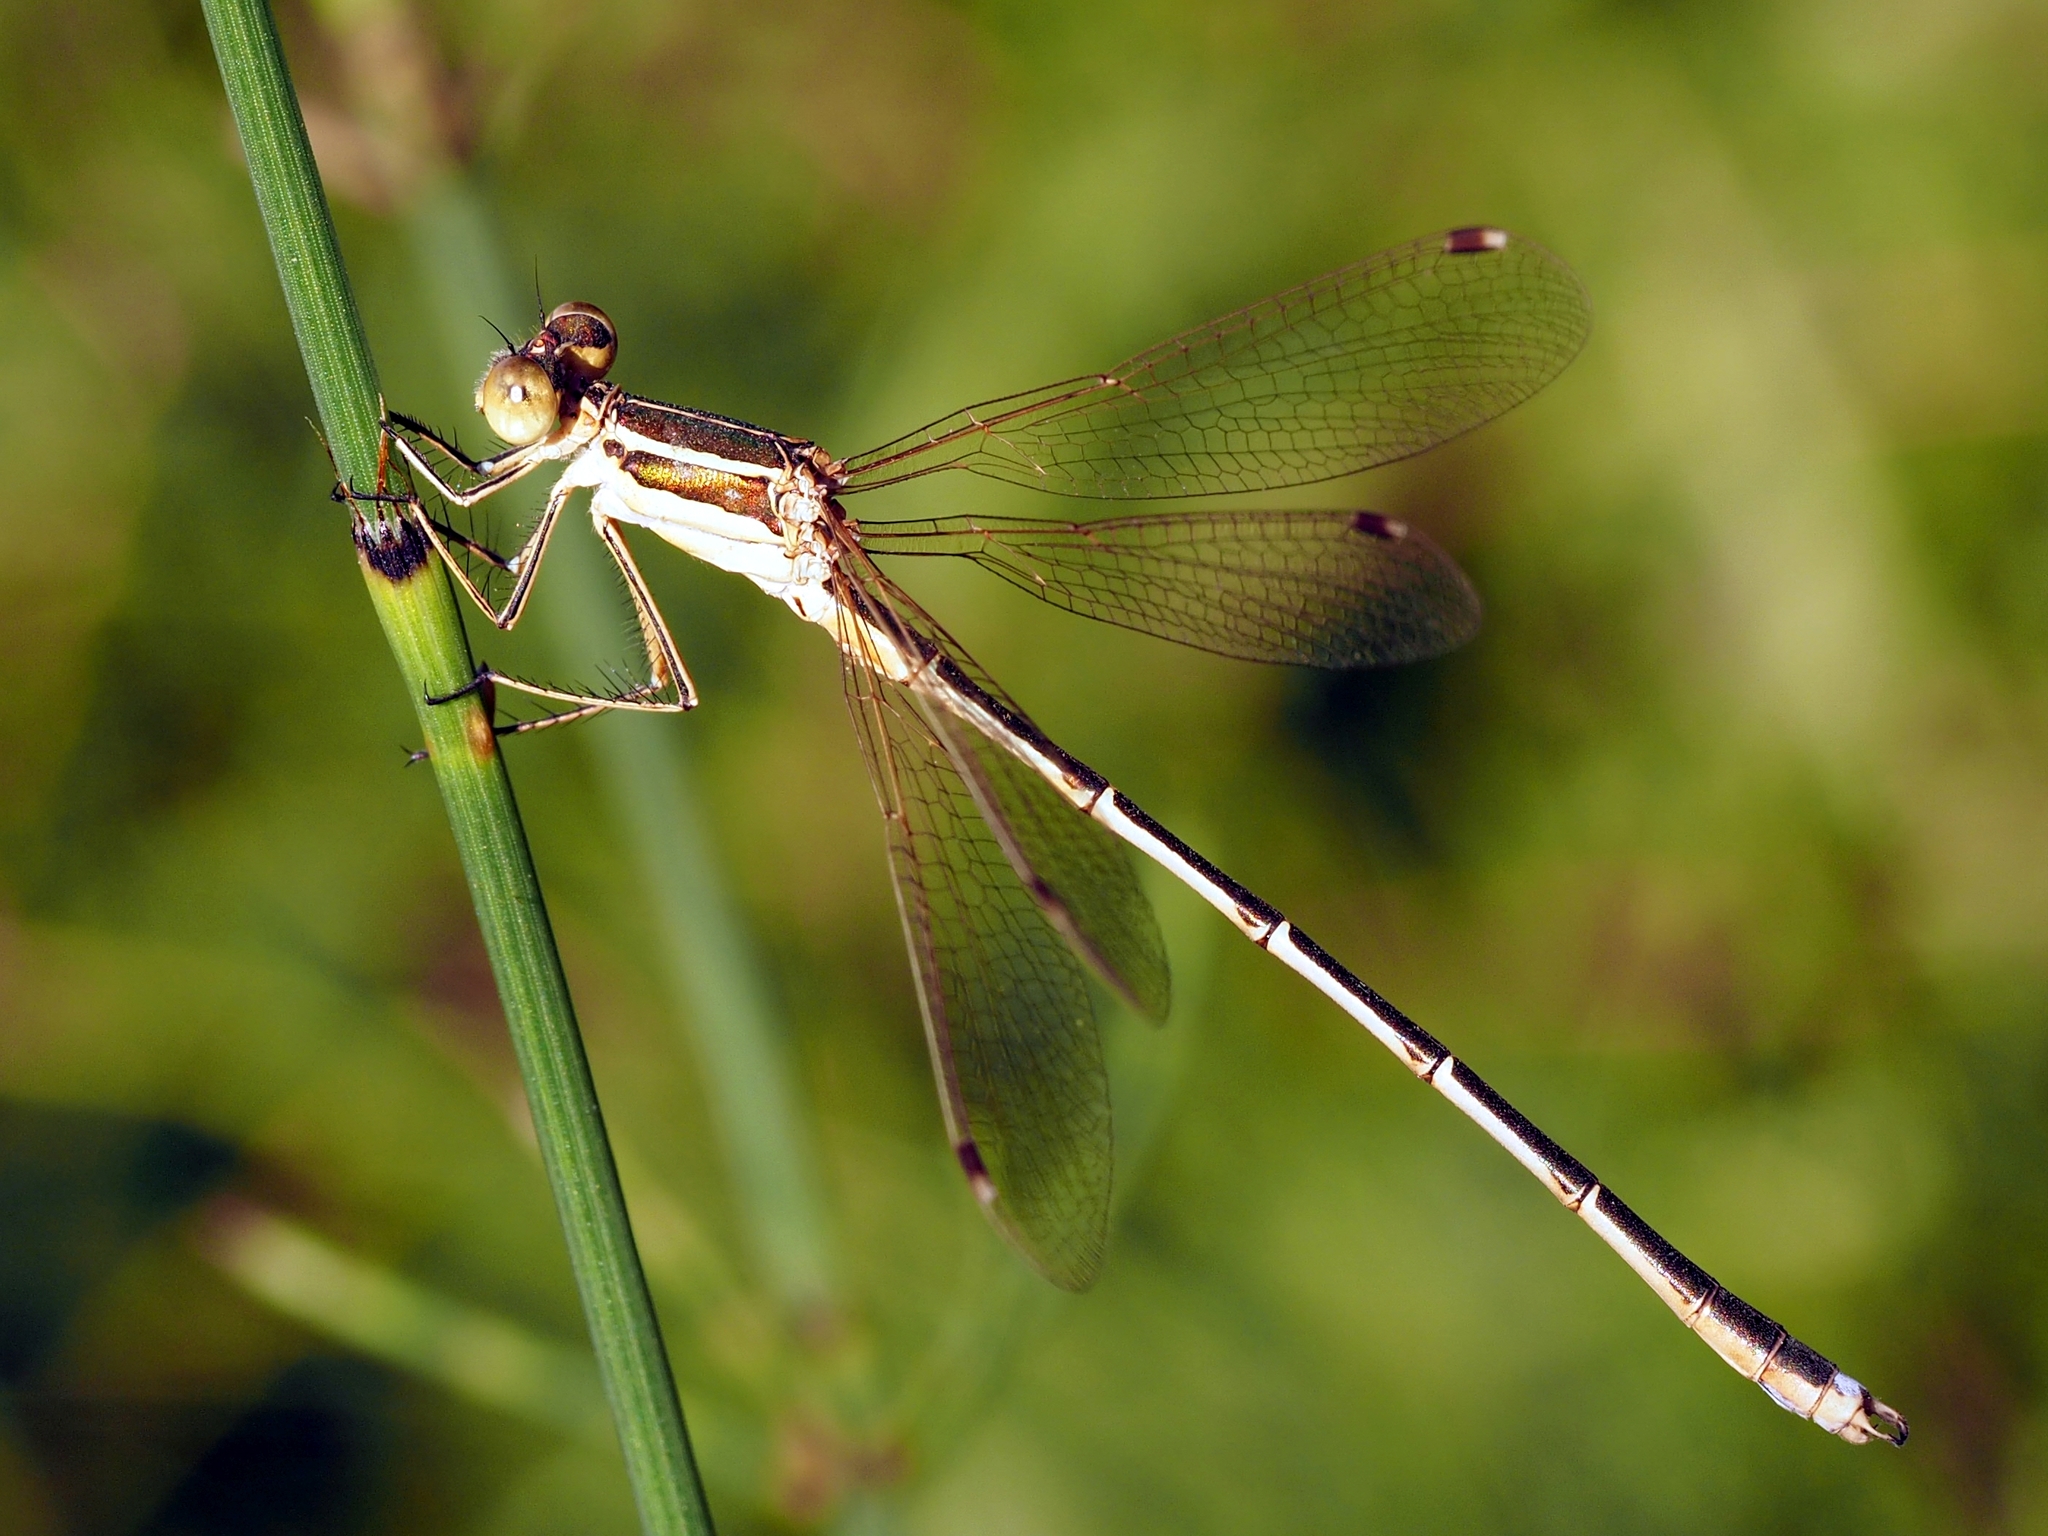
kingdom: Animalia
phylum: Arthropoda
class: Insecta
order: Odonata
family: Lestidae
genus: Lestes
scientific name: Lestes barbarus
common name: Migrant spreadwing
